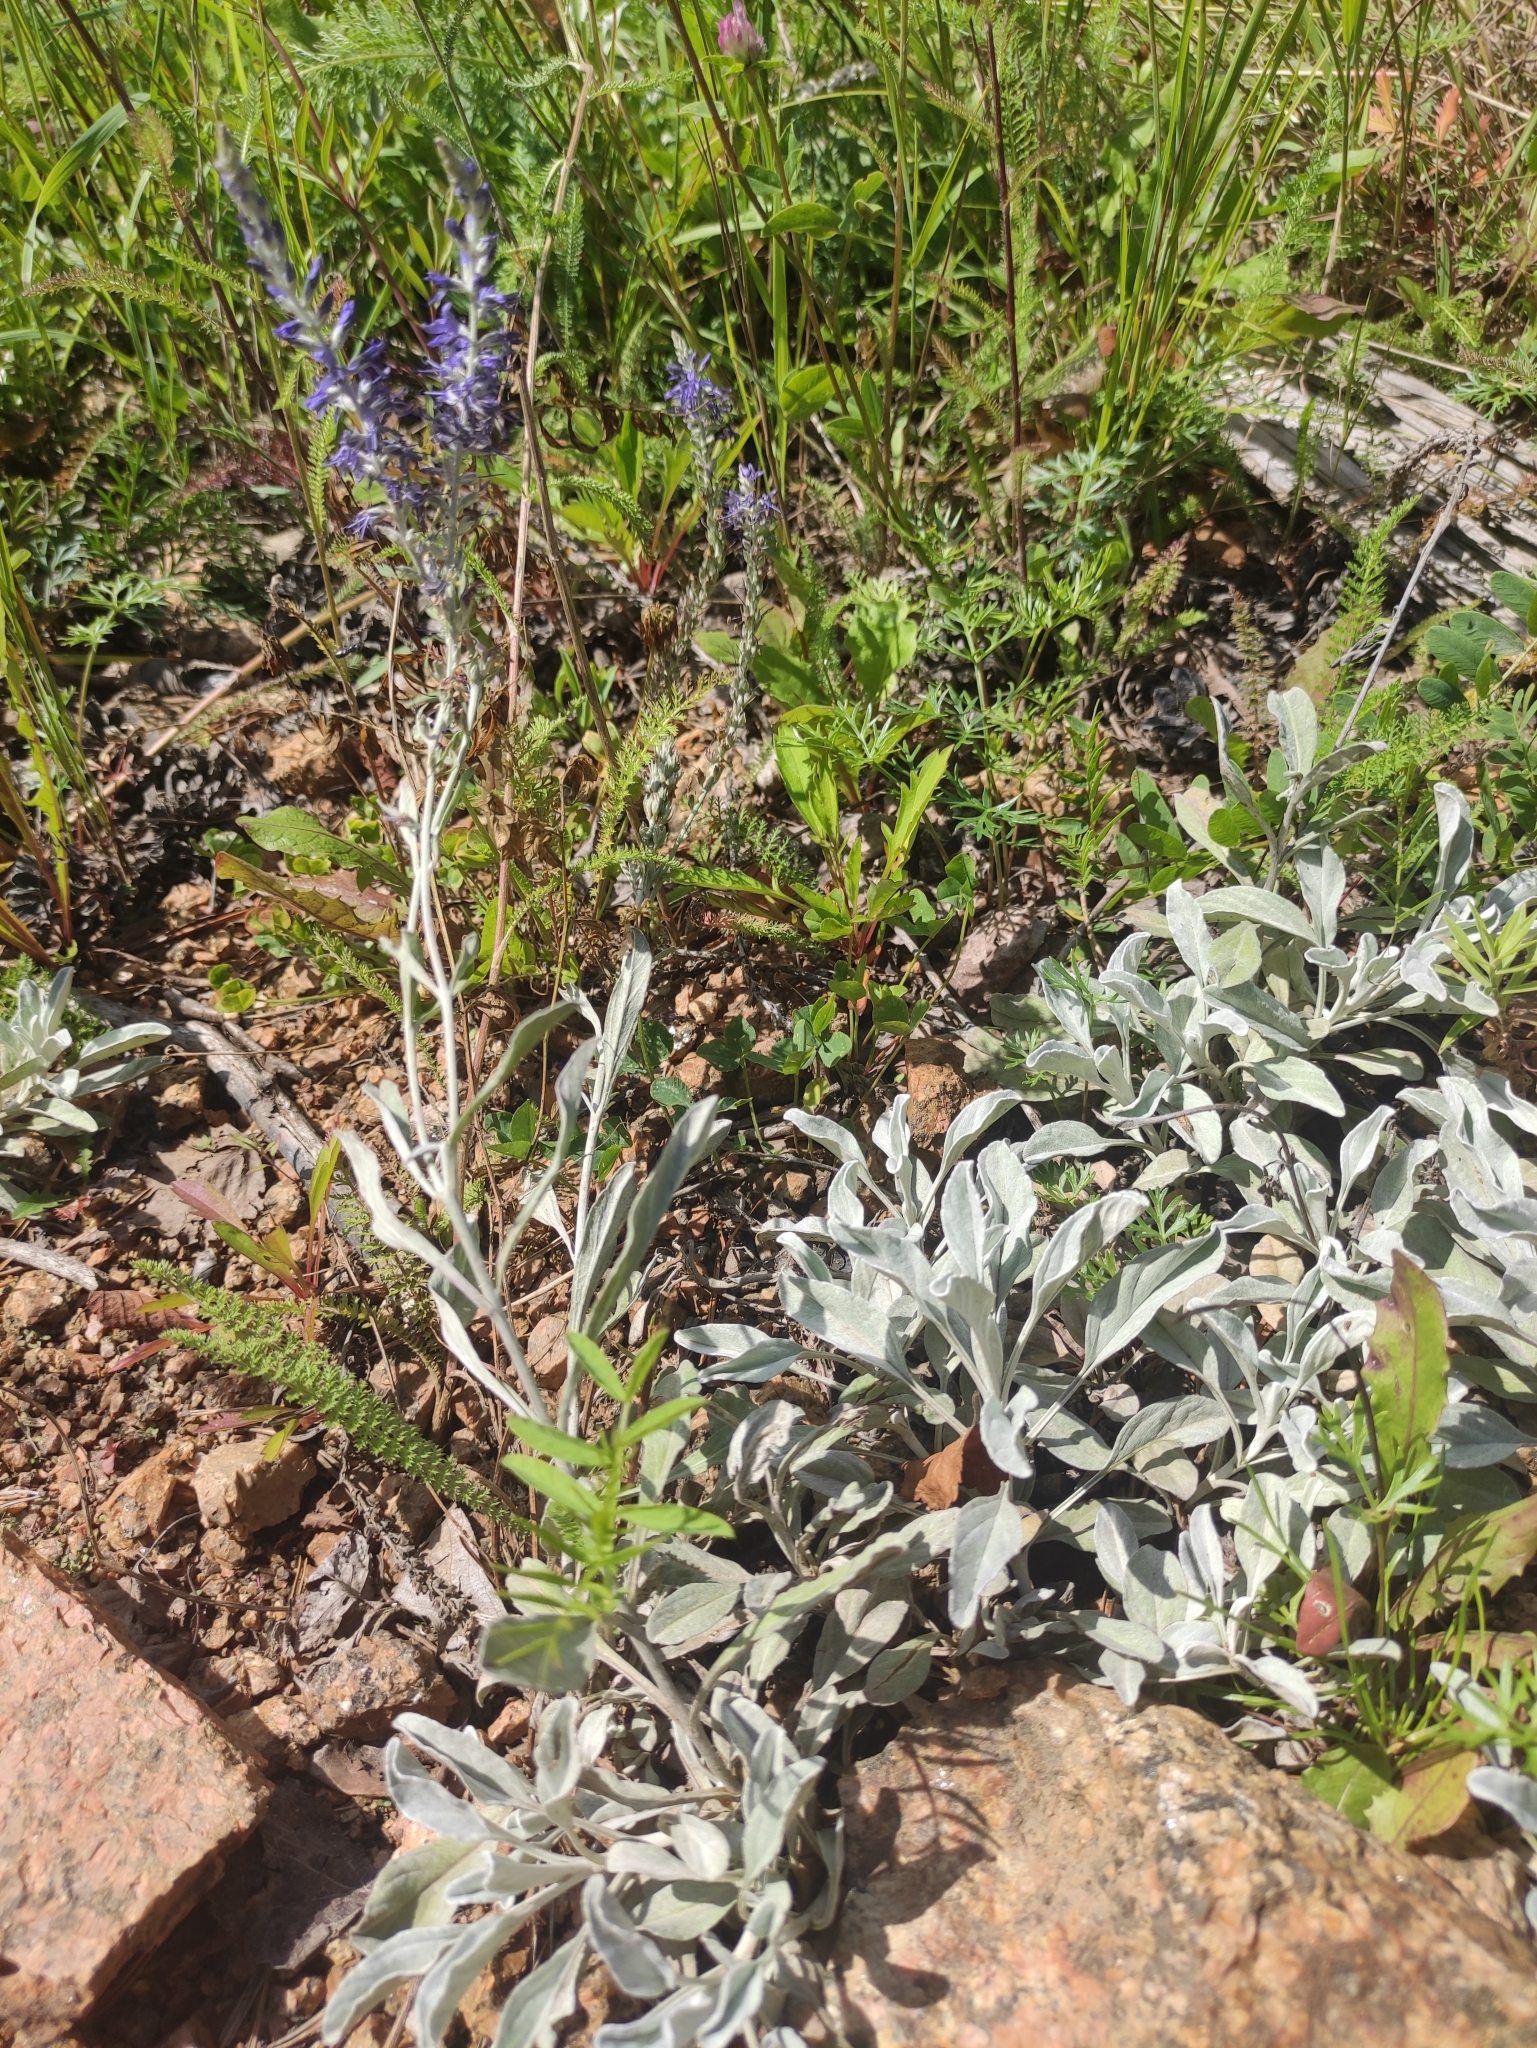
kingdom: Plantae
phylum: Tracheophyta
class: Magnoliopsida
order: Lamiales
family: Plantaginaceae
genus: Veronica
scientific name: Veronica incana
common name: Silver speedwell
